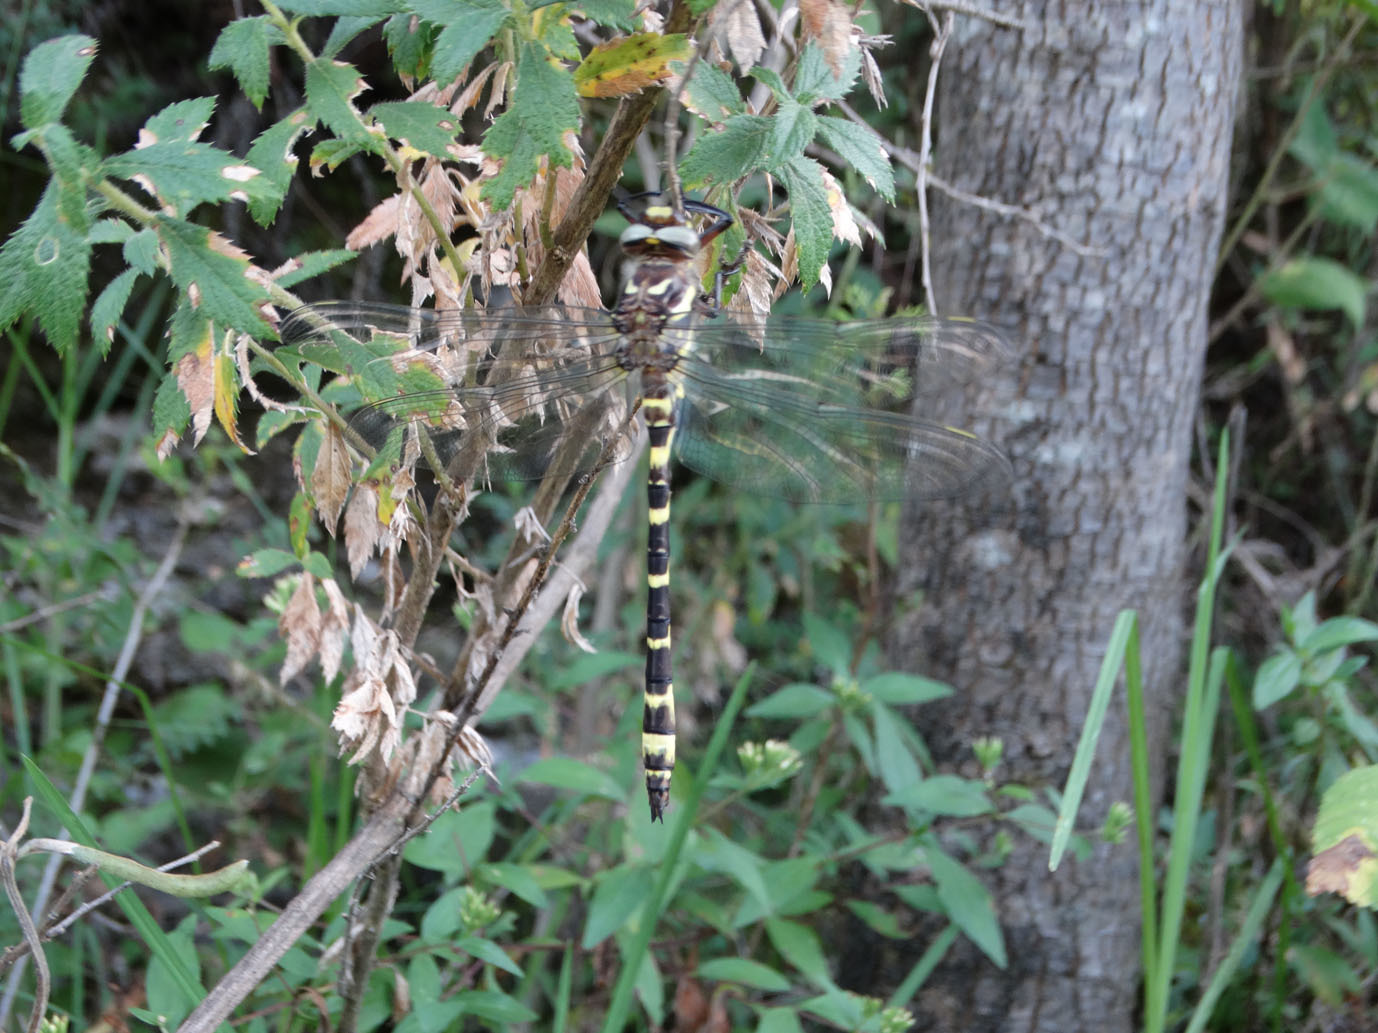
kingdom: Animalia
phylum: Arthropoda
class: Insecta
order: Odonata
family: Cordulegastridae
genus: Cordulegaster
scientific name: Cordulegaster diadema
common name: Apache spiketail
